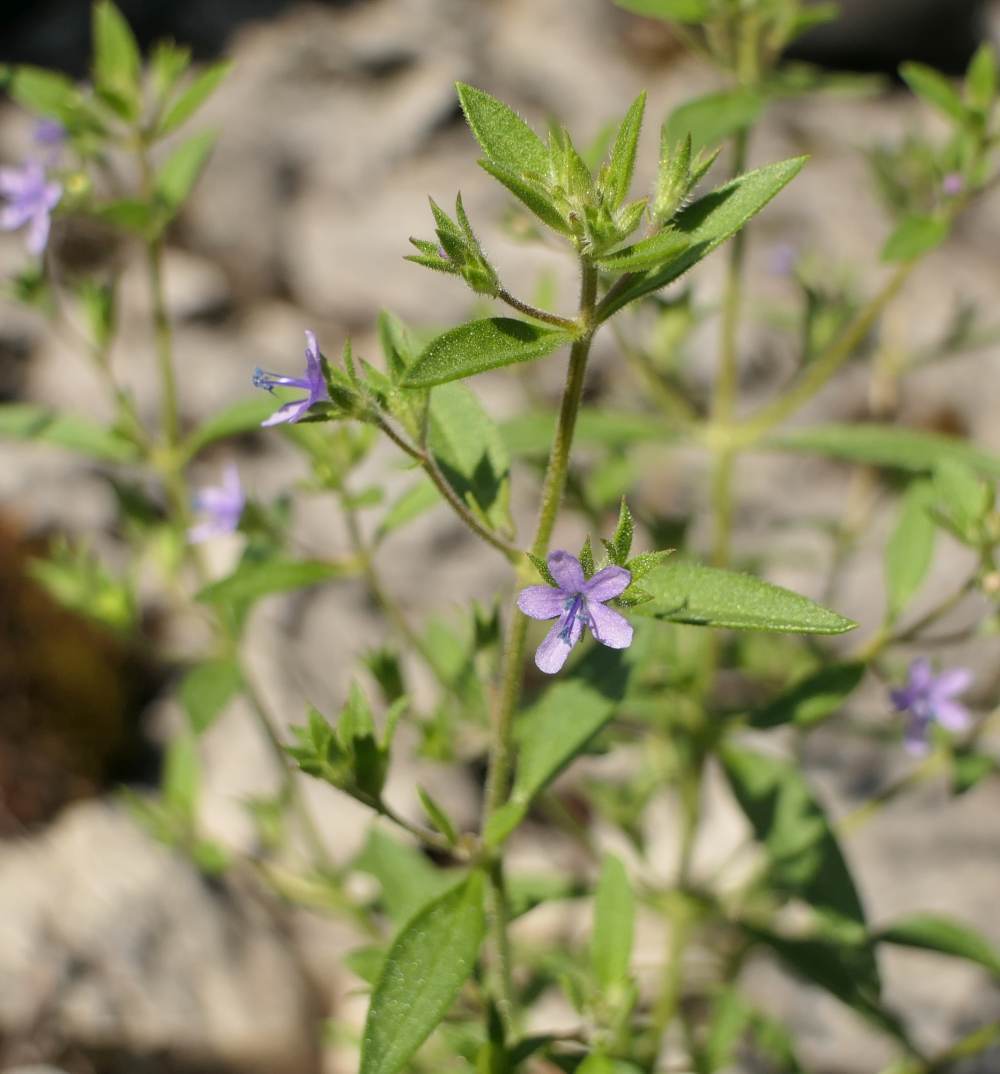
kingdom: Plantae
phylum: Tracheophyta
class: Magnoliopsida
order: Lamiales
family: Lamiaceae
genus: Trichostema
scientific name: Trichostema brachiatum
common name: False pennyroyal
